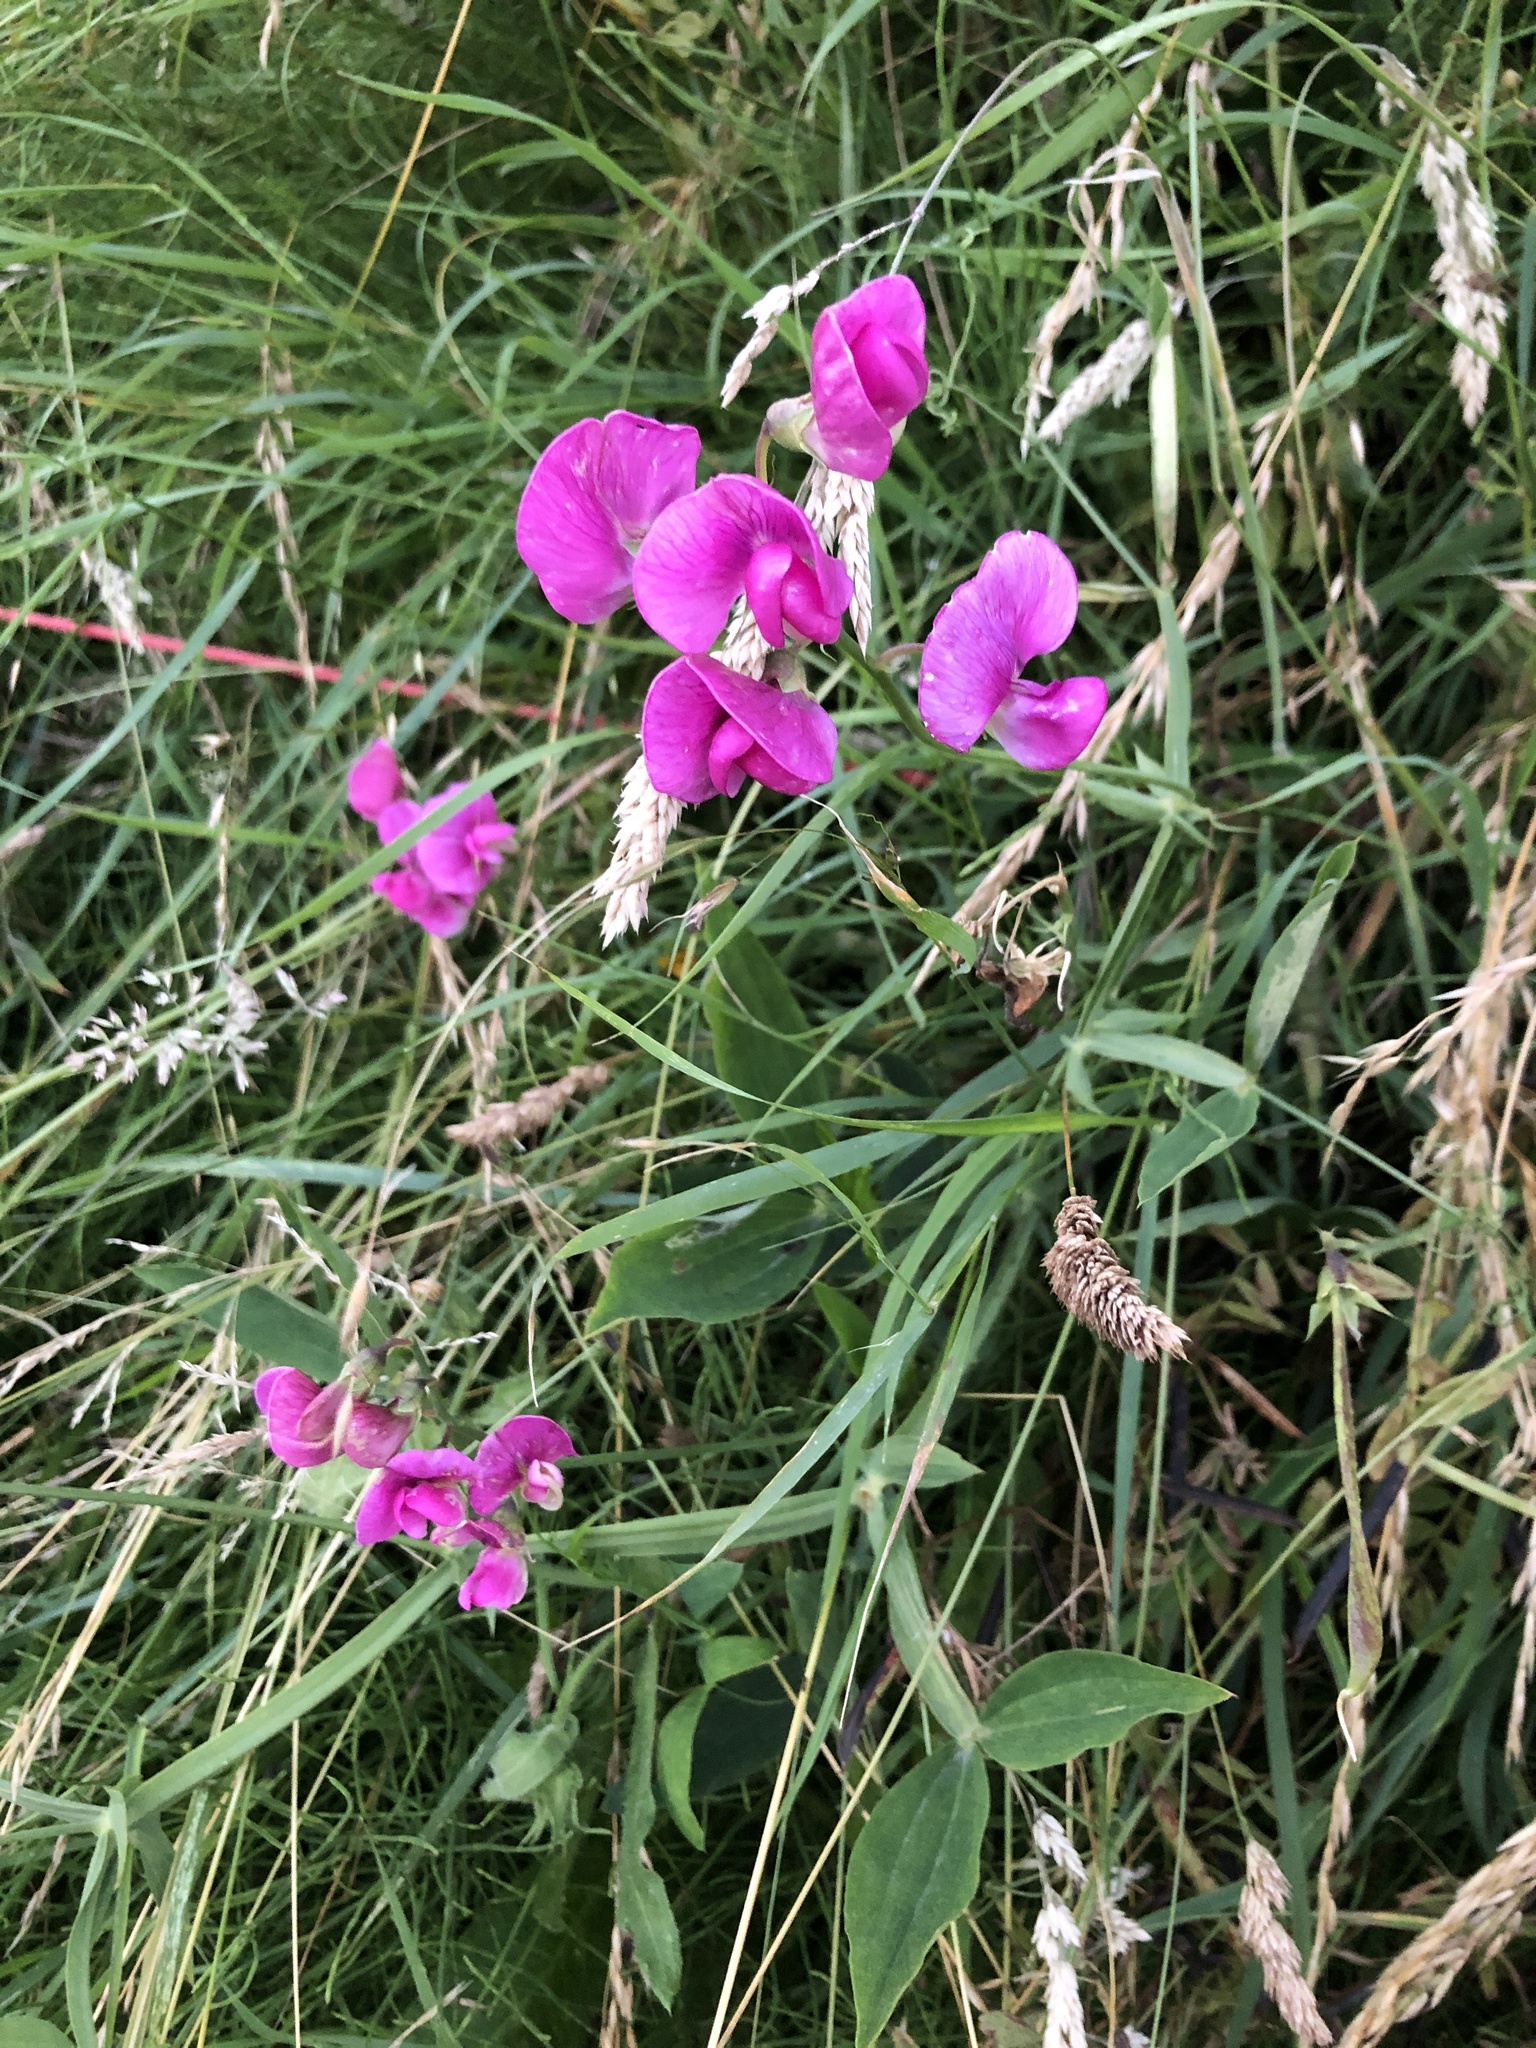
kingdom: Plantae
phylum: Tracheophyta
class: Magnoliopsida
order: Fabales
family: Fabaceae
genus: Lathyrus
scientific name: Lathyrus latifolius
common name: Perennial pea
